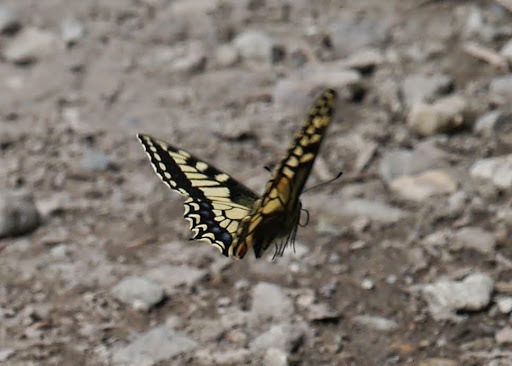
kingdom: Animalia
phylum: Arthropoda
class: Insecta
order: Lepidoptera
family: Papilionidae
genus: Papilio
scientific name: Papilio machaon
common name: Swallowtail
